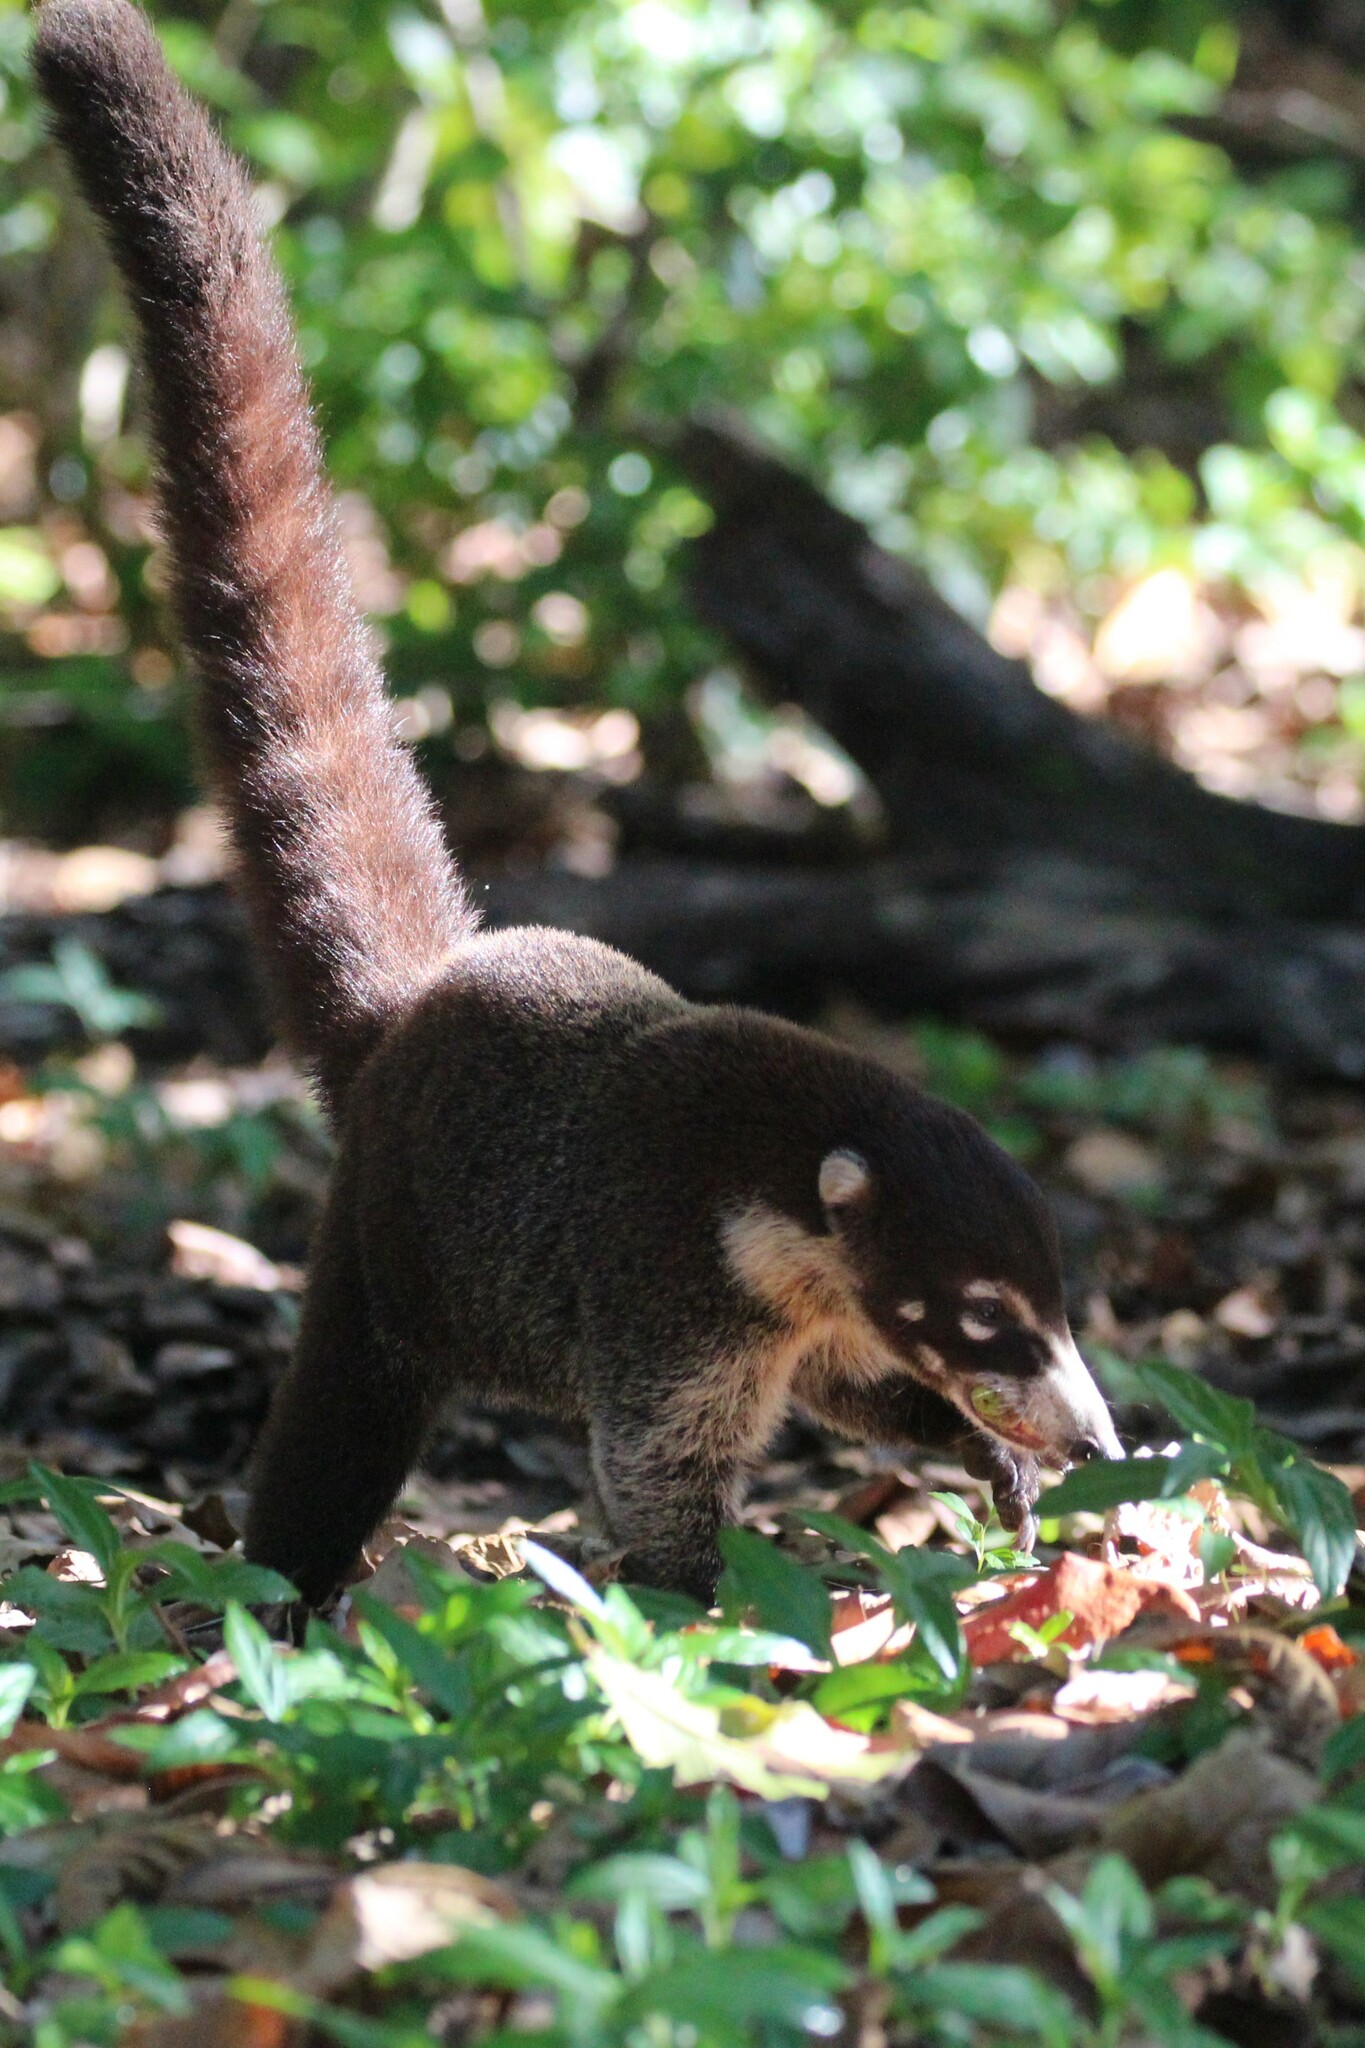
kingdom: Animalia
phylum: Chordata
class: Mammalia
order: Carnivora
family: Procyonidae
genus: Nasua
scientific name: Nasua narica
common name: White-nosed coati
